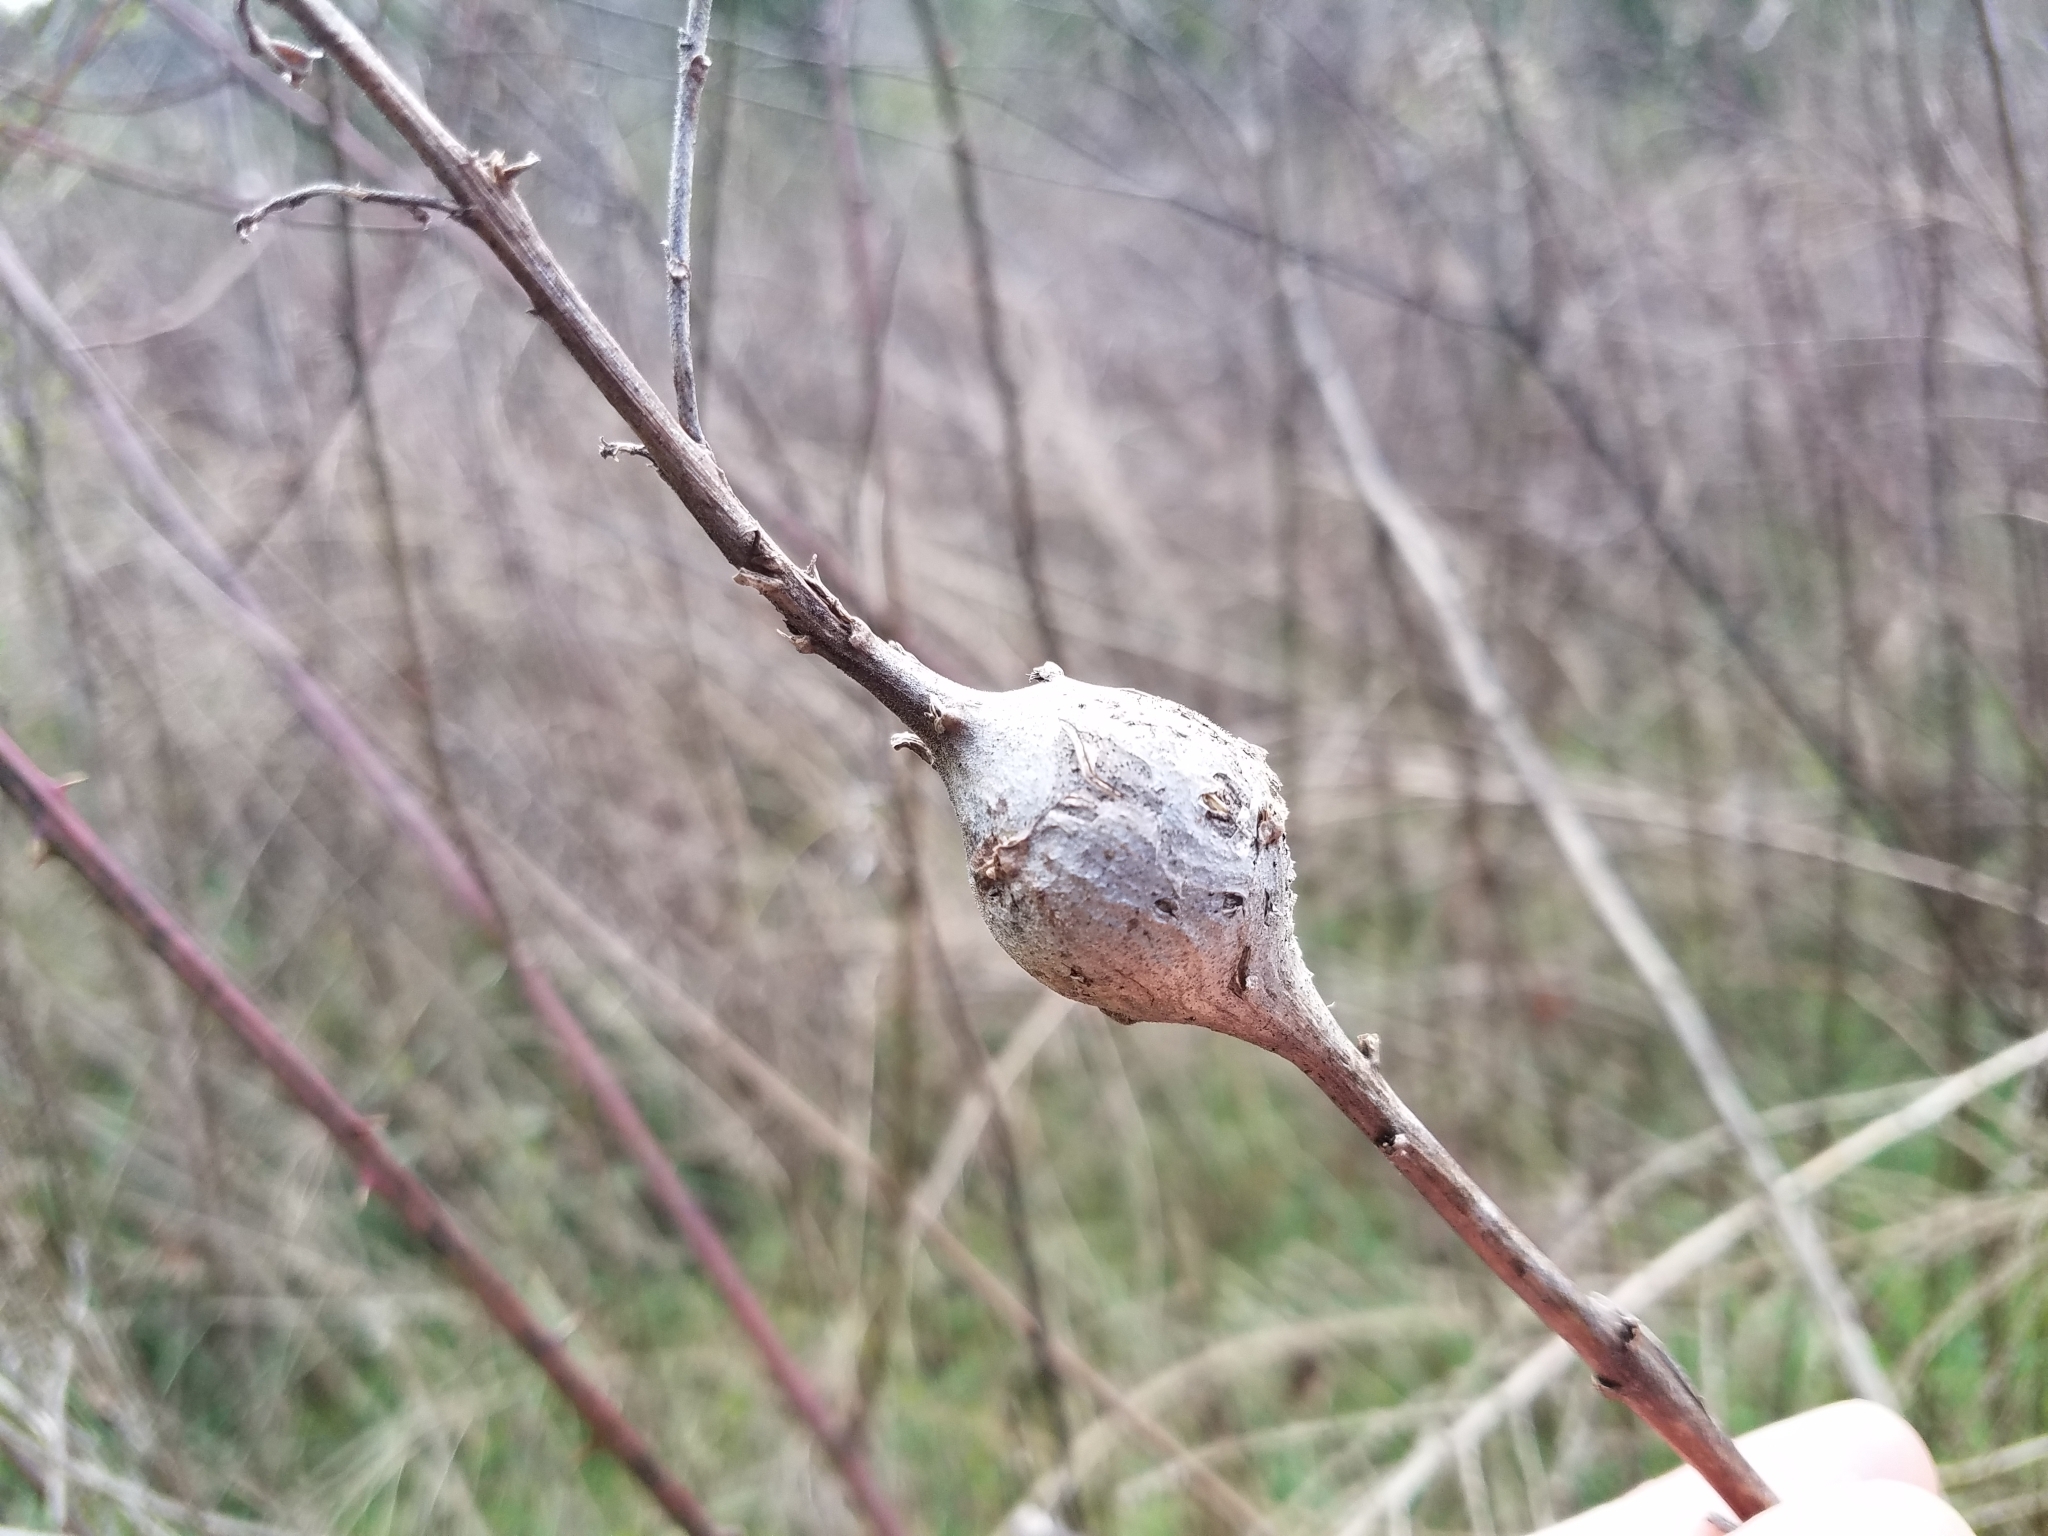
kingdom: Animalia
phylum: Arthropoda
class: Insecta
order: Diptera
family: Tephritidae
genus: Eurosta
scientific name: Eurosta solidaginis
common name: Goldenrod gall fly
